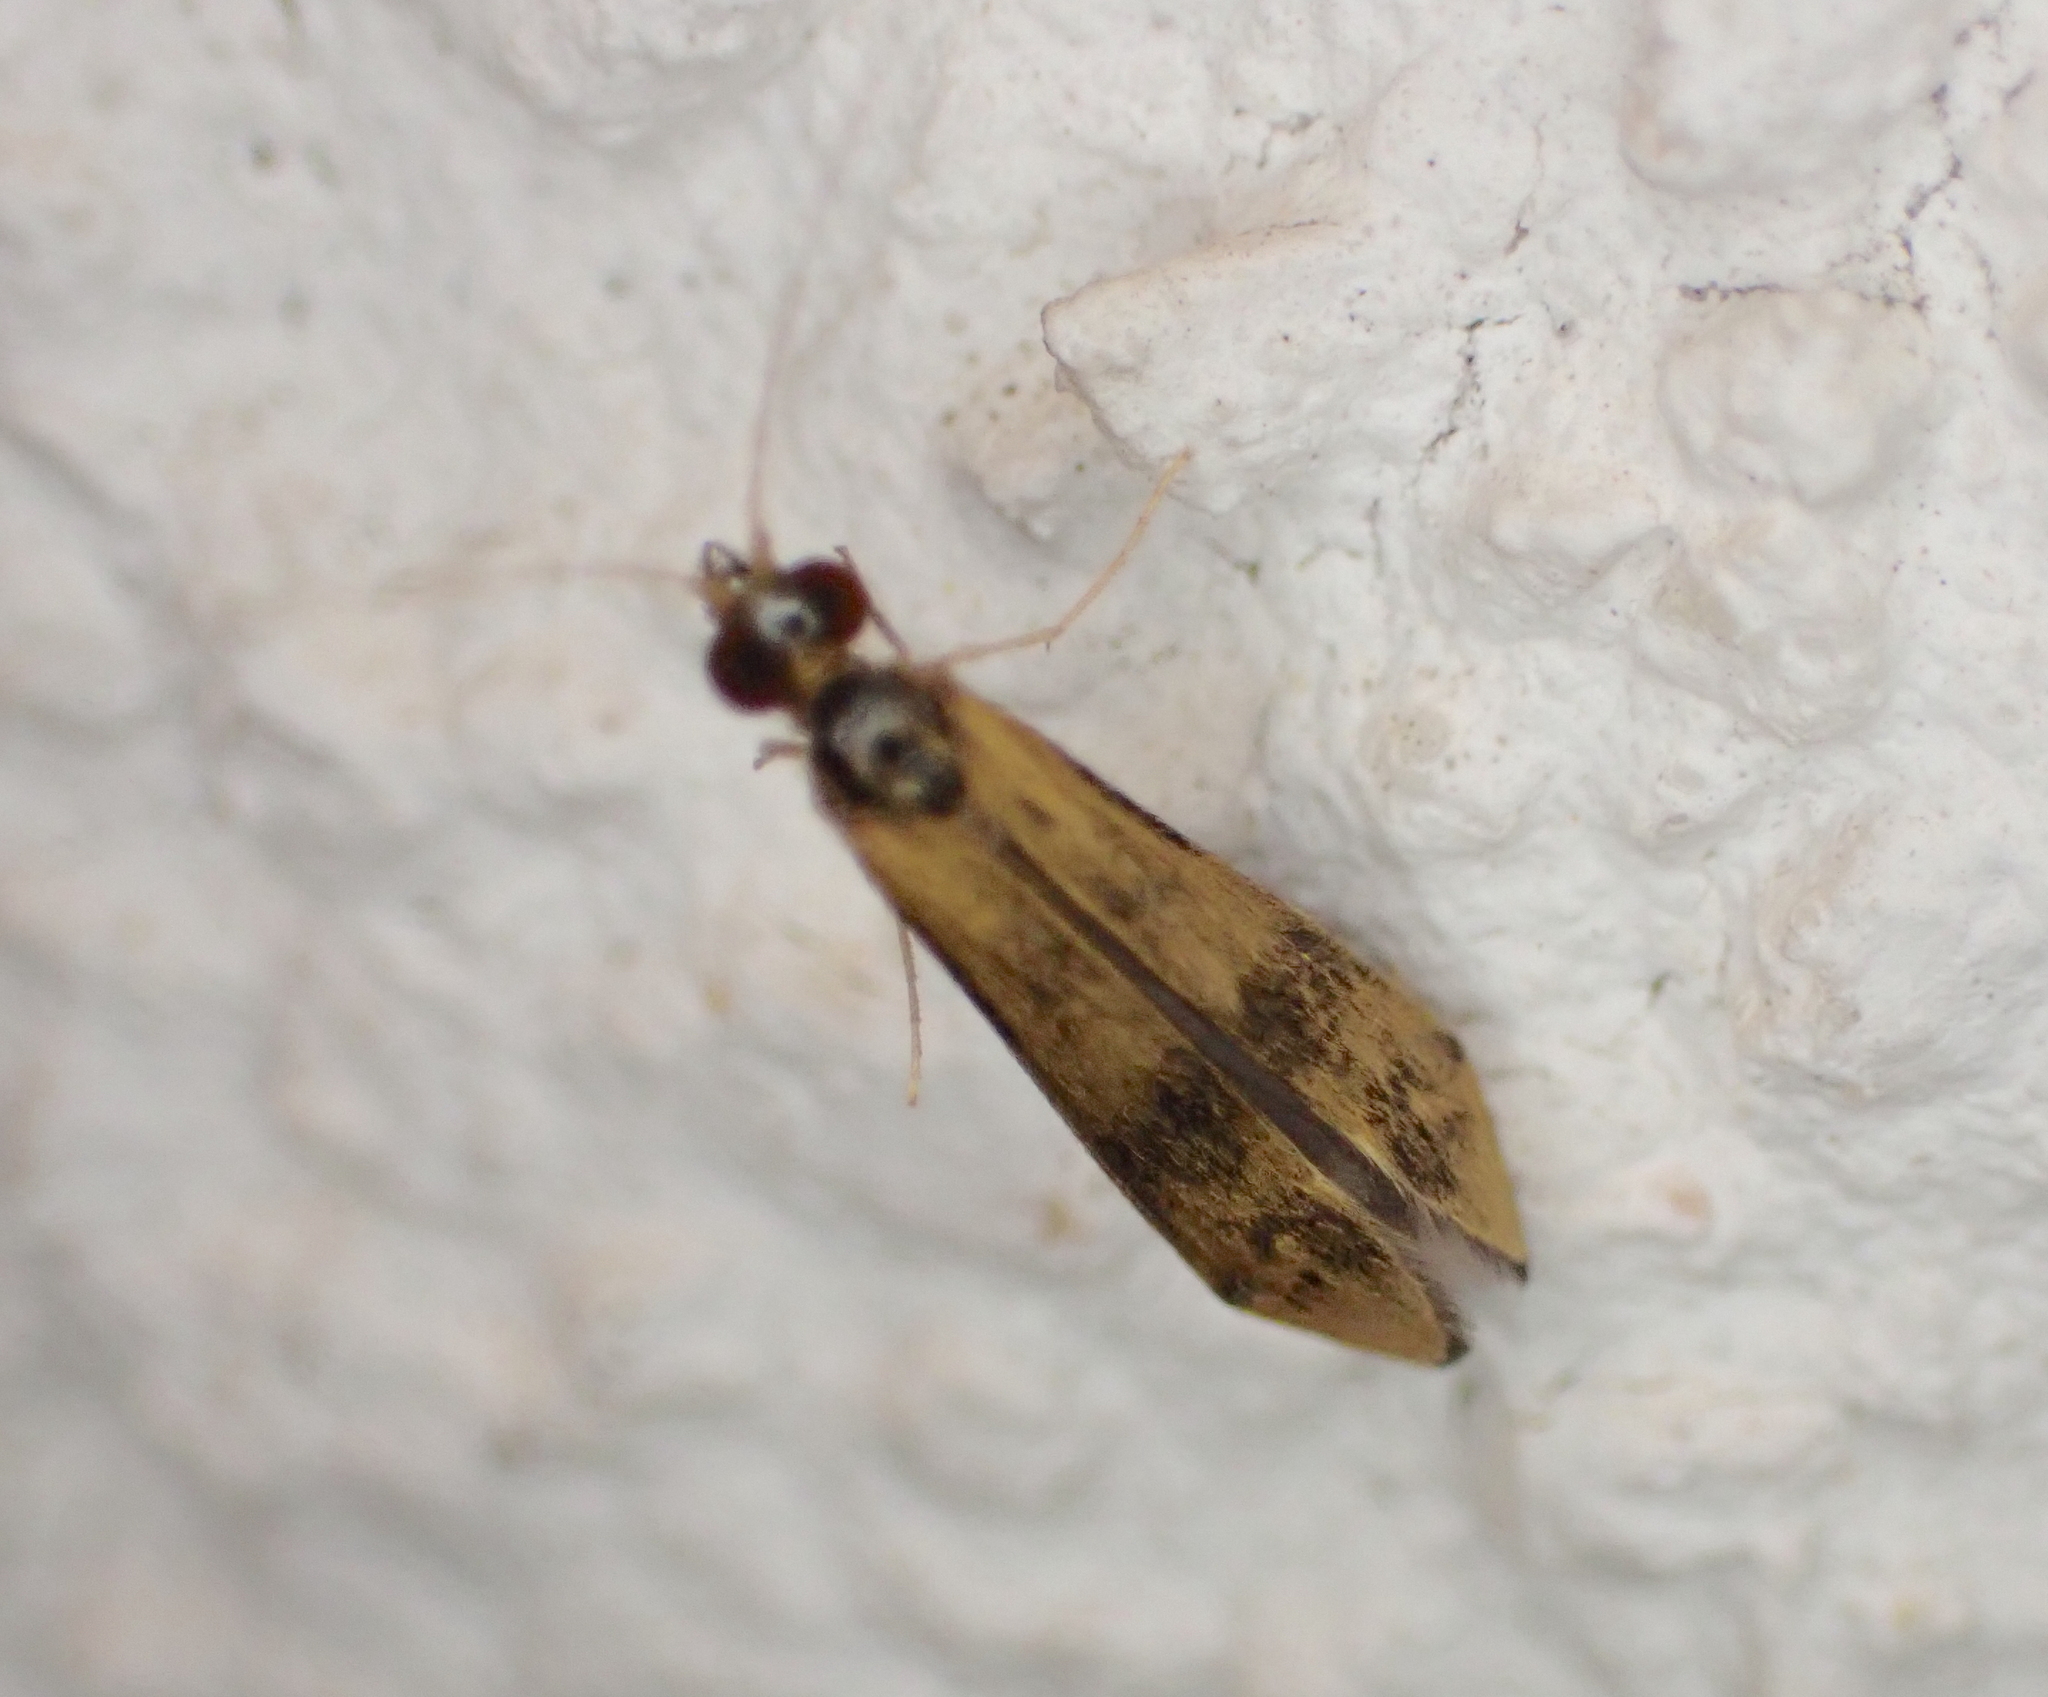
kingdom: Animalia
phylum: Arthropoda
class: Insecta
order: Trichoptera
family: Leptoceridae
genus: Mystacides
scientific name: Mystacides longicornis
